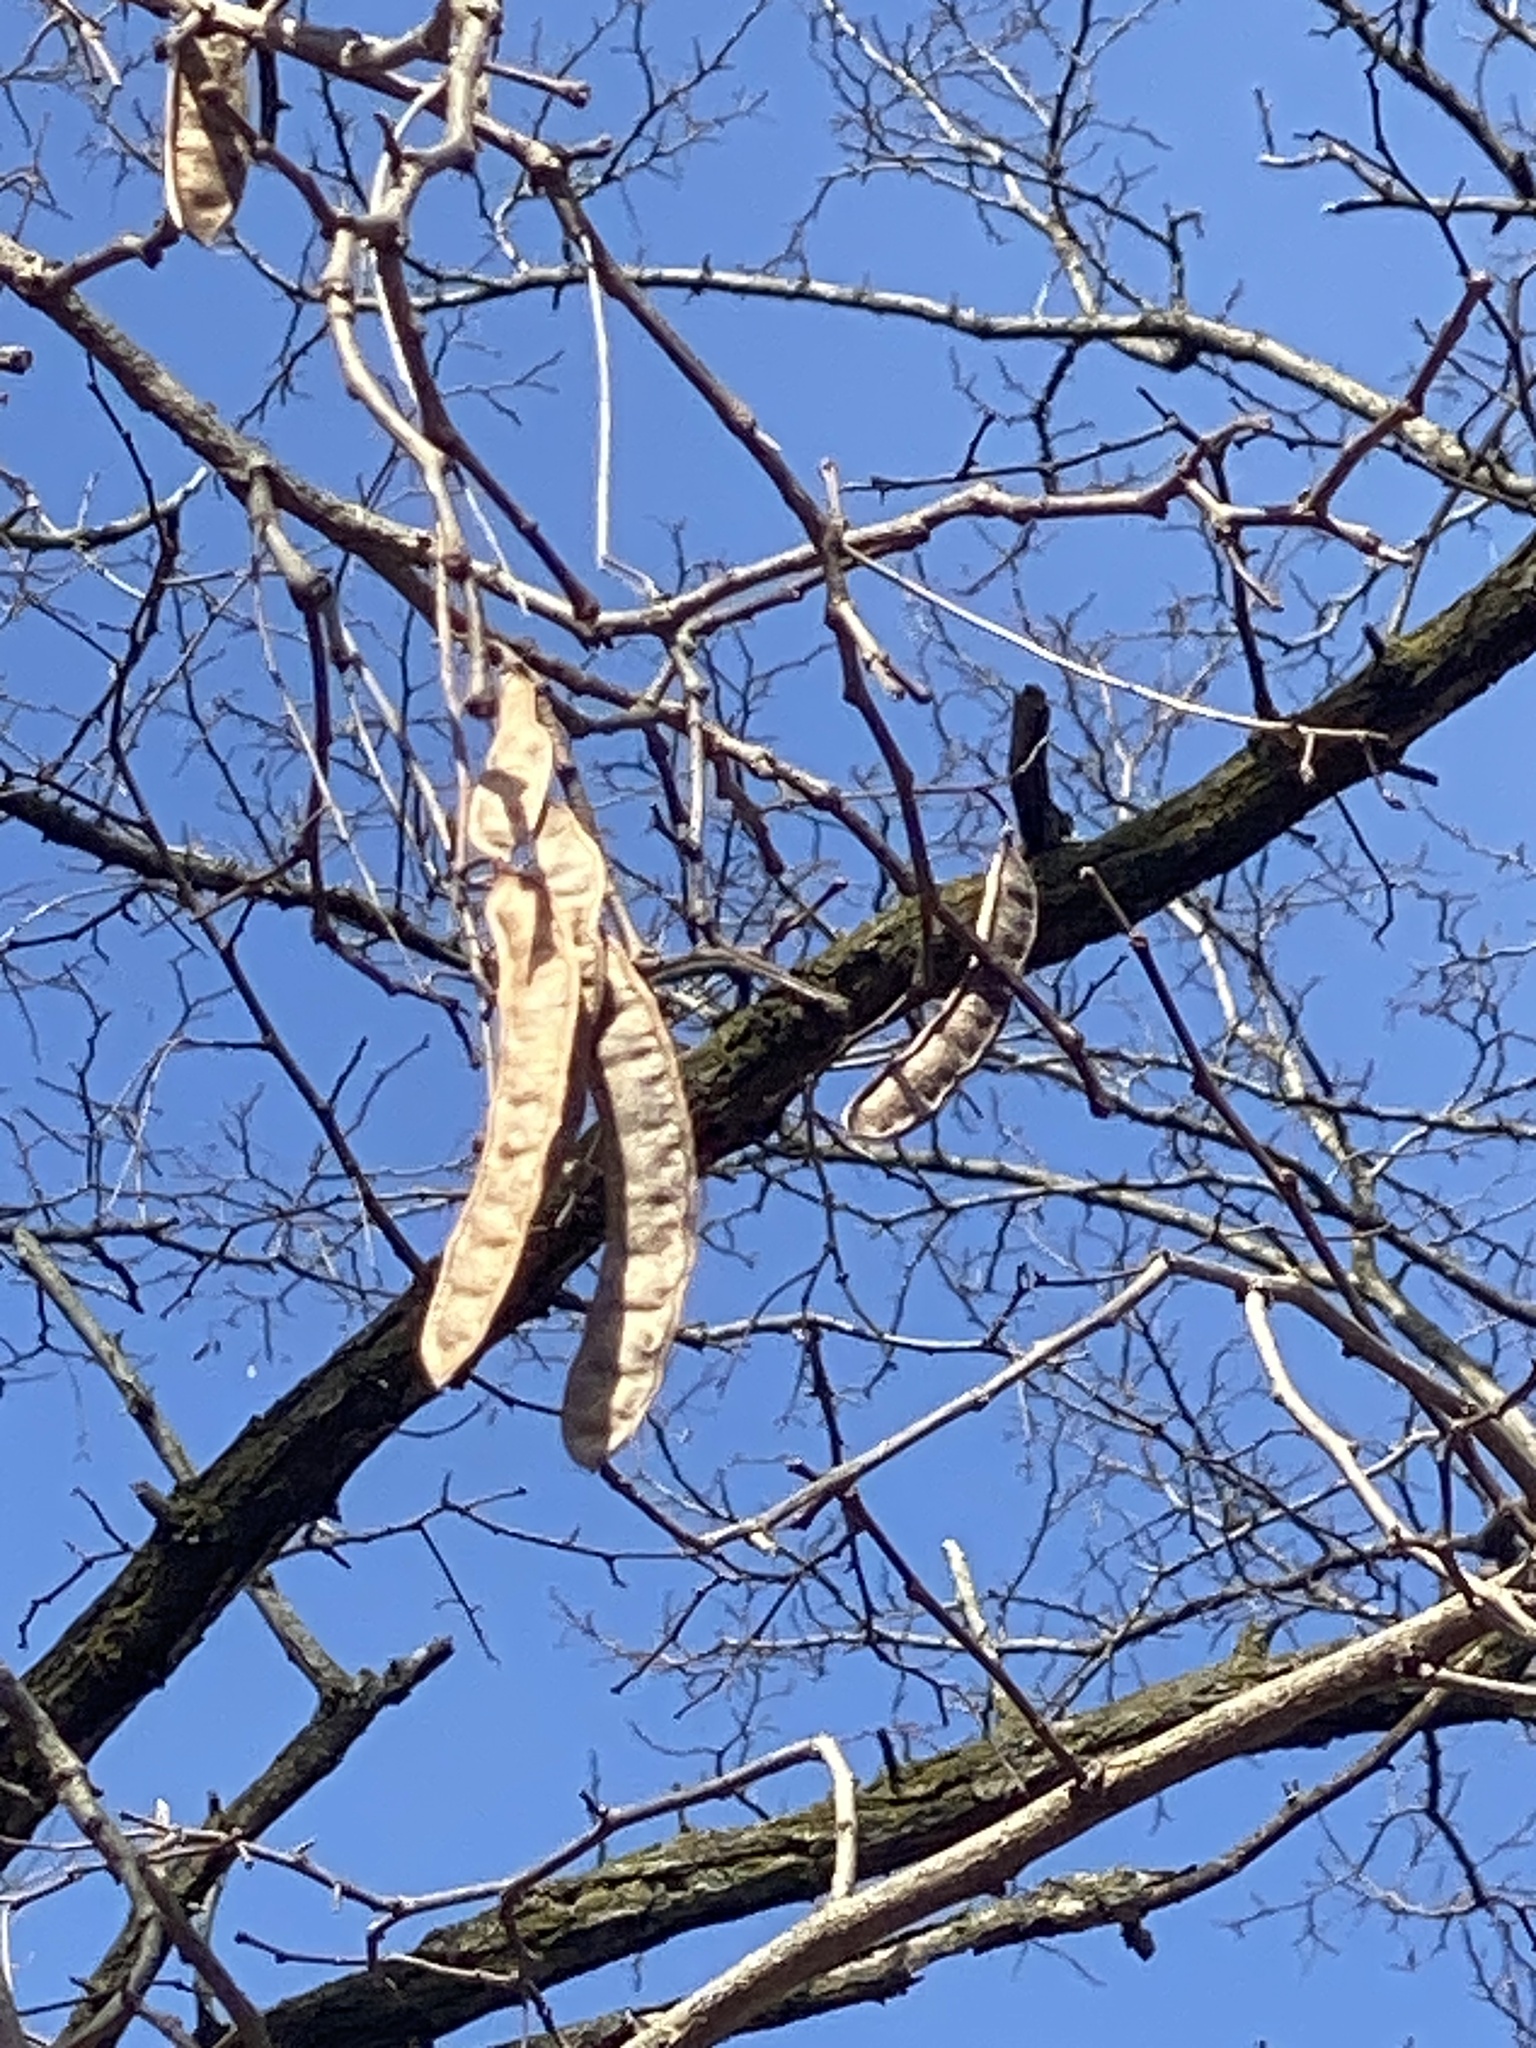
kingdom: Plantae
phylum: Tracheophyta
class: Magnoliopsida
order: Fabales
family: Fabaceae
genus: Robinia
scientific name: Robinia pseudoacacia
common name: Black locust
